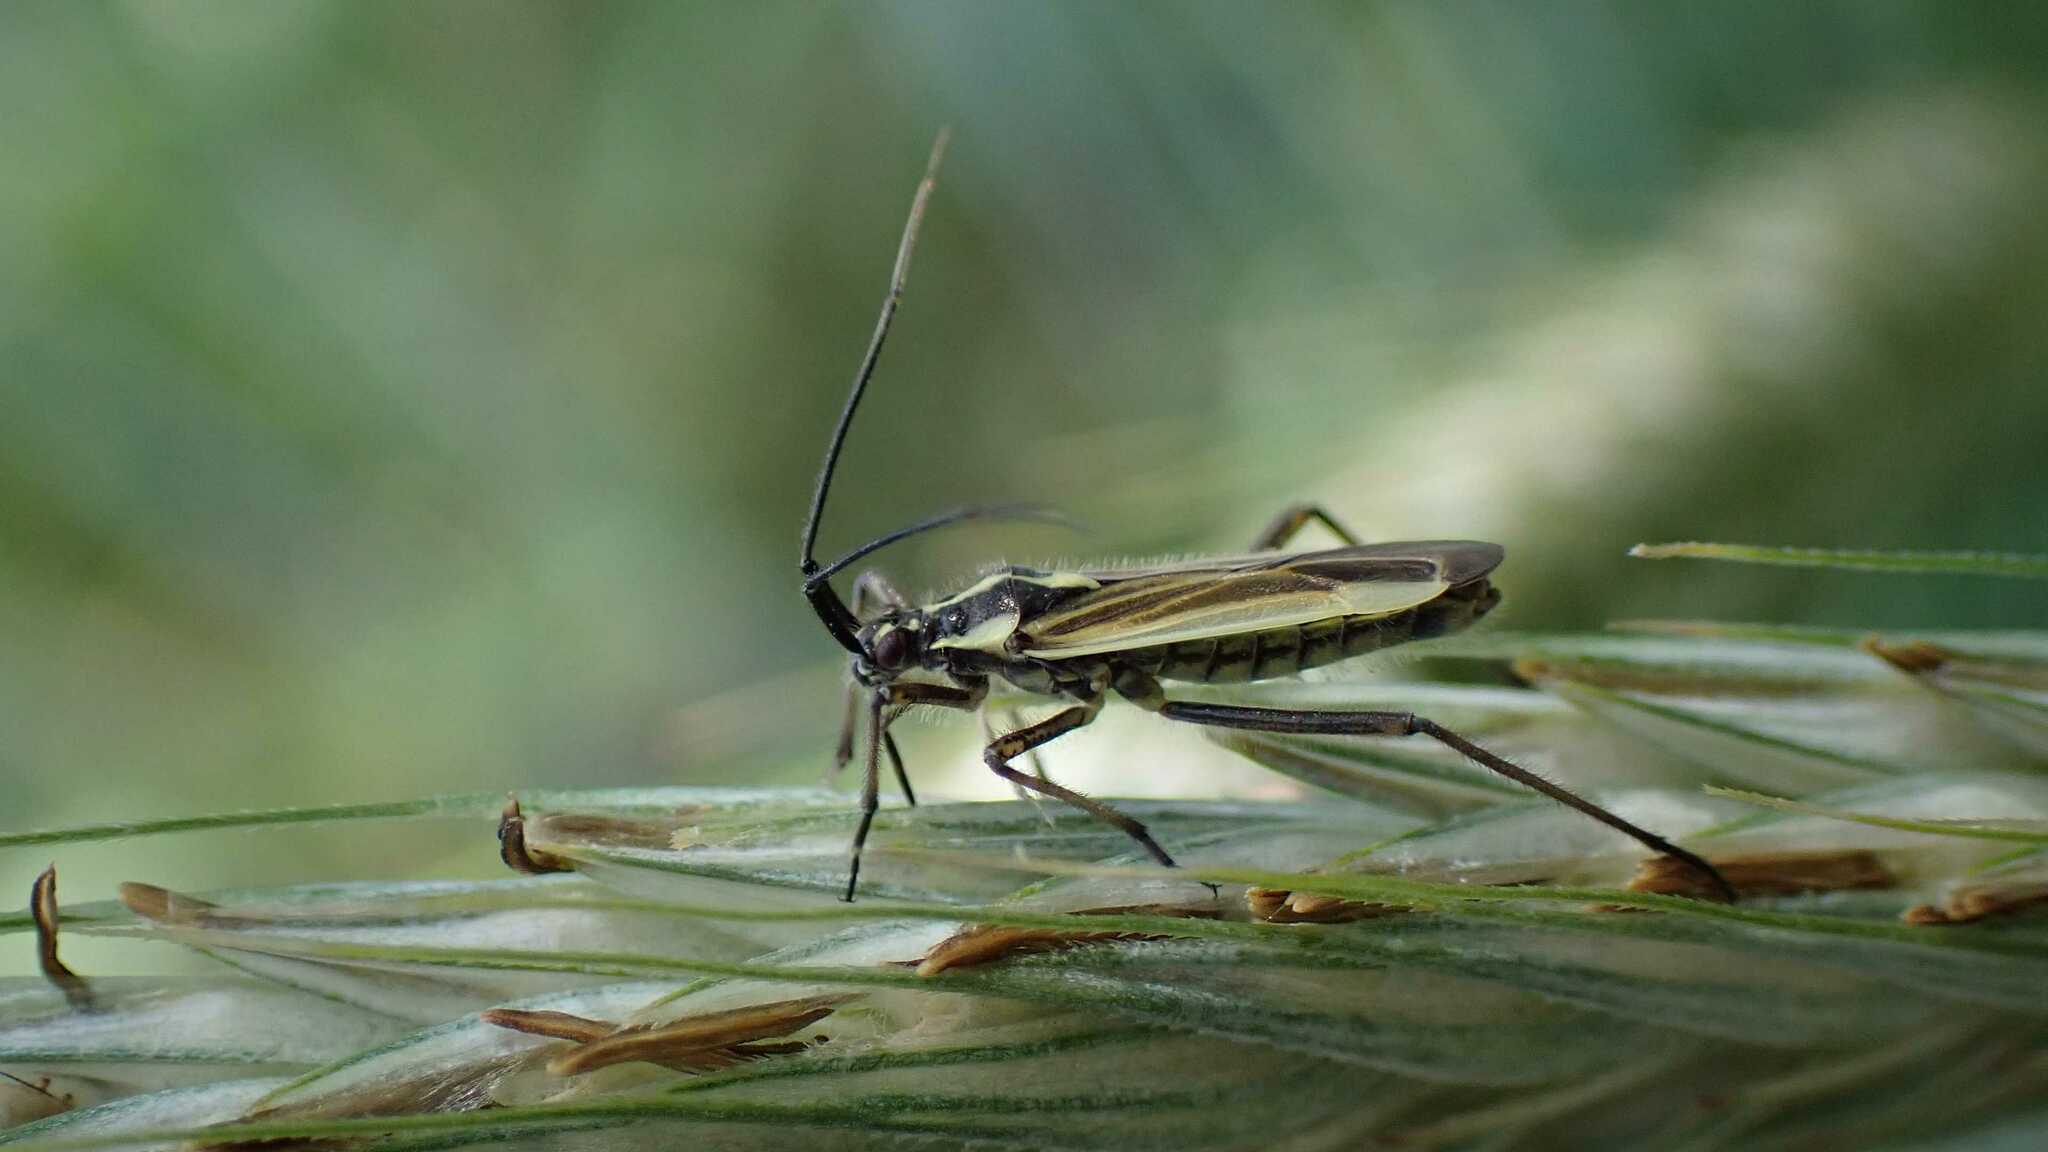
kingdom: Animalia
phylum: Arthropoda
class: Insecta
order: Hemiptera
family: Miridae
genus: Leptopterna
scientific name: Leptopterna dolabrata
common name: Meadow plant bug
